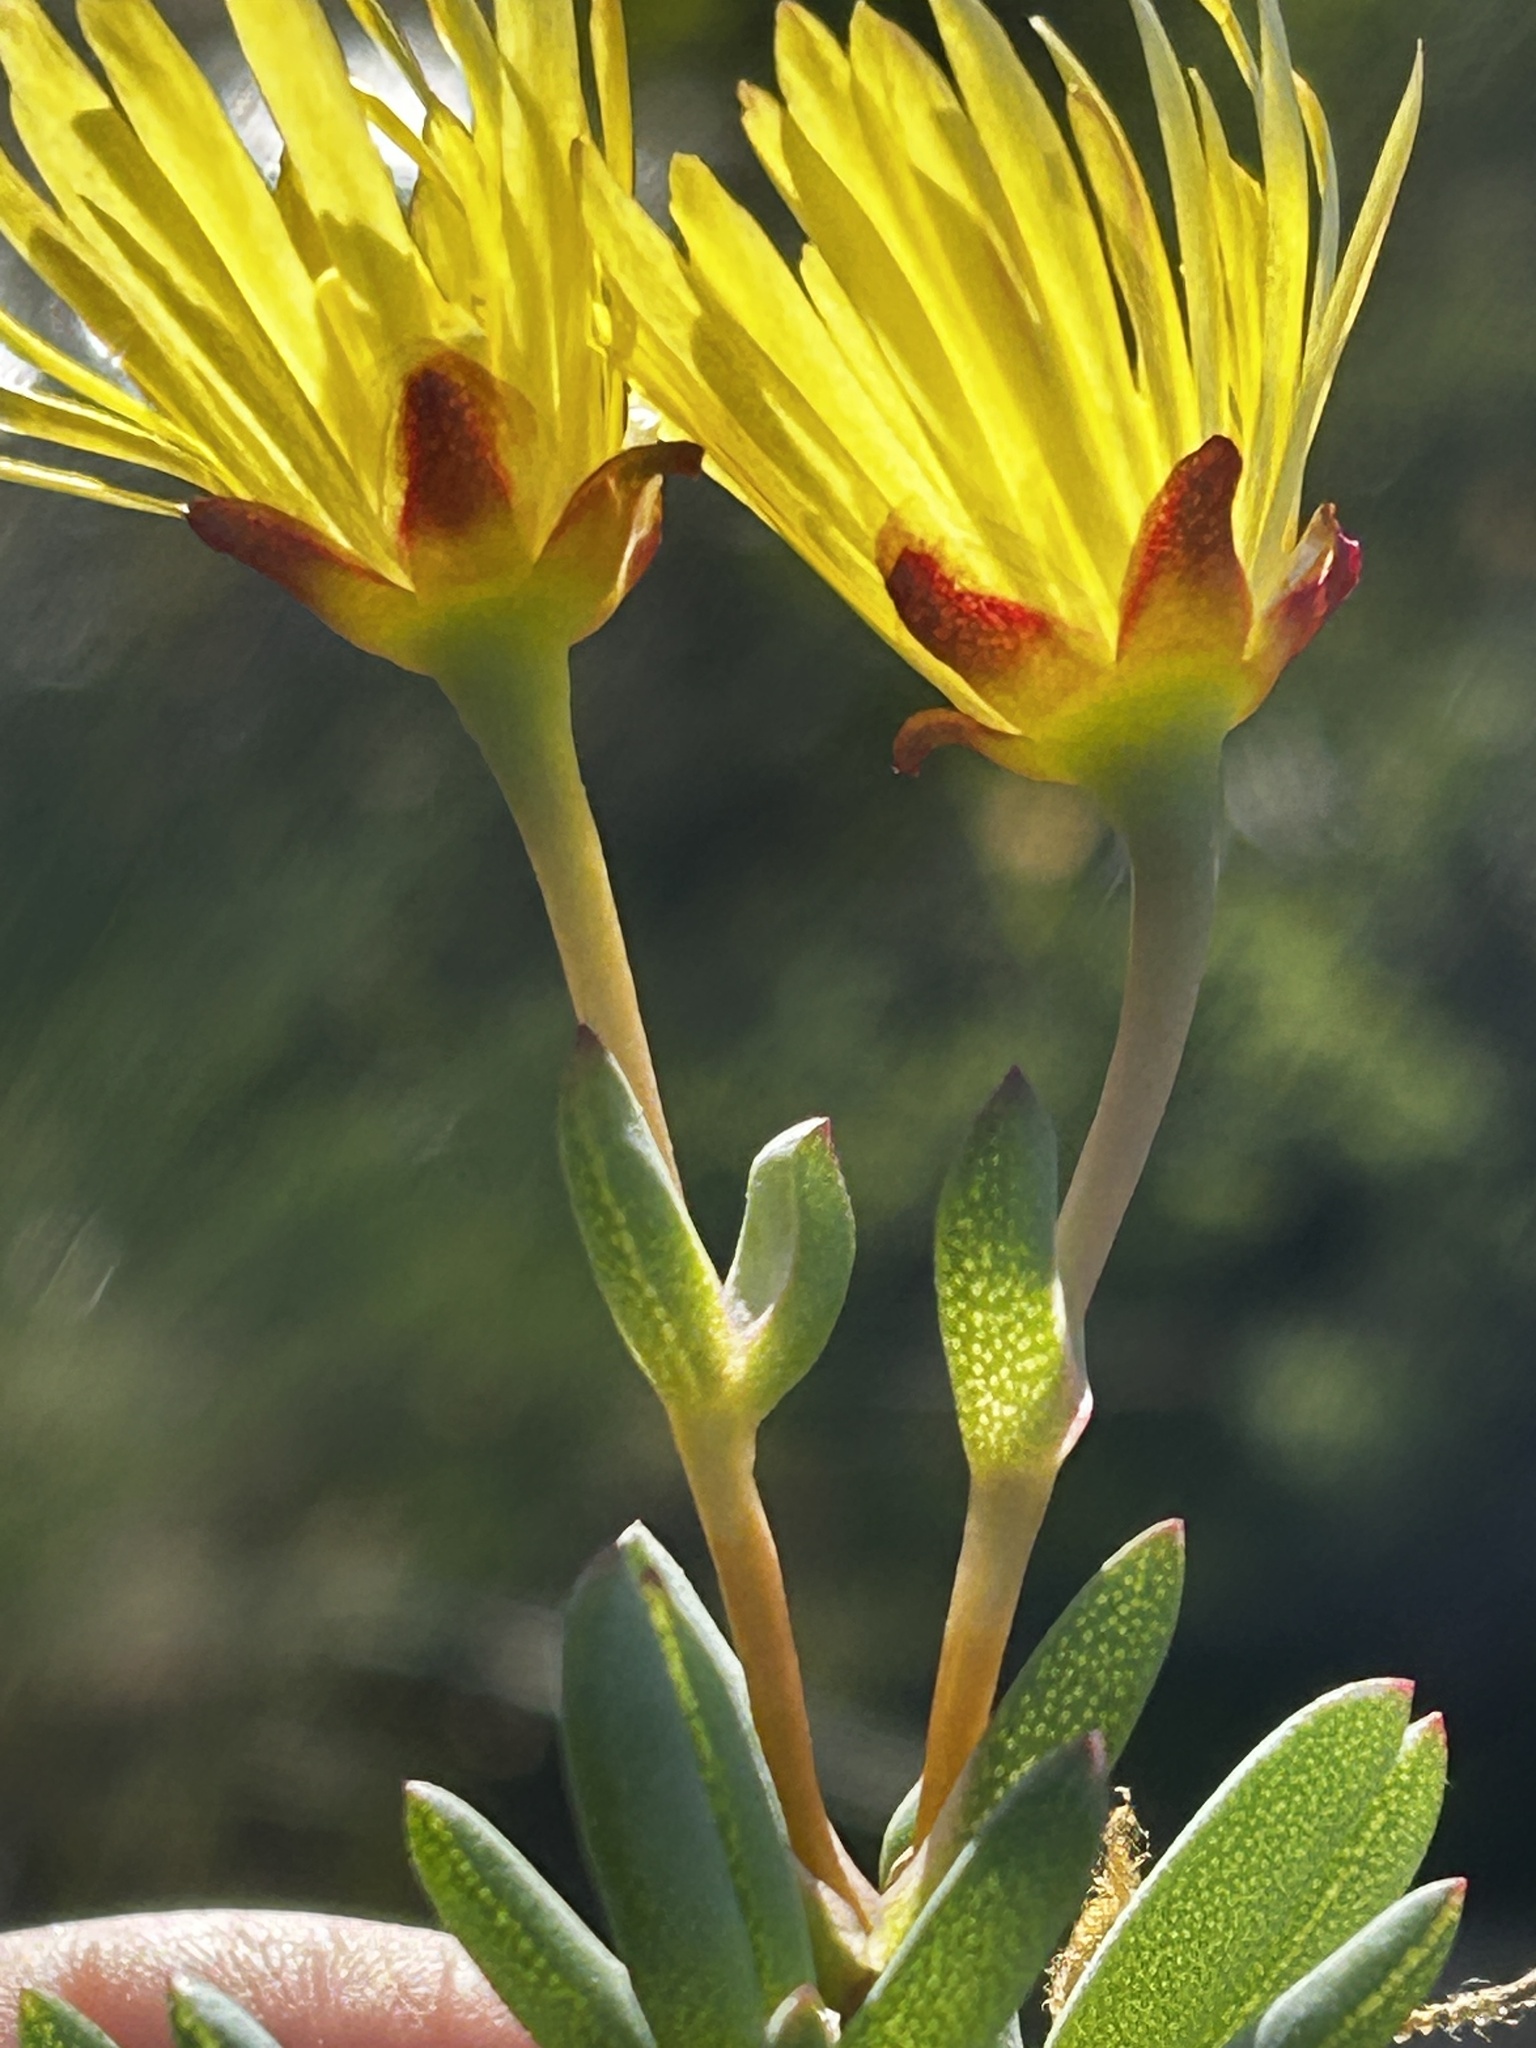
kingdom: Plantae
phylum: Tracheophyta
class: Magnoliopsida
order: Caryophyllales
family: Aizoaceae
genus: Lampranthus
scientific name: Lampranthus glaucus
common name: Noonflower
